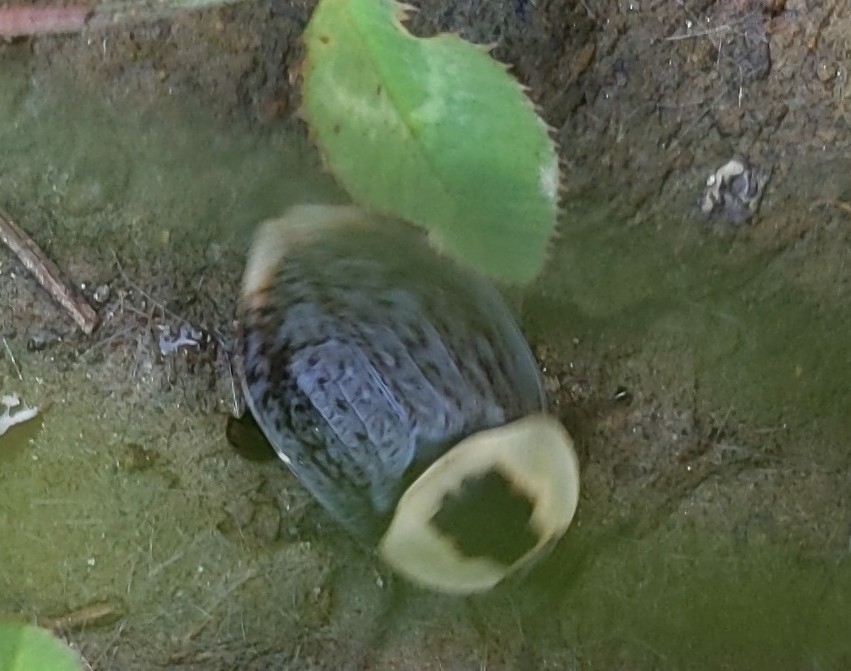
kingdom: Animalia
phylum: Arthropoda
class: Insecta
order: Coleoptera
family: Staphylinidae
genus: Necrophila
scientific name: Necrophila americana
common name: American carrion beetle
